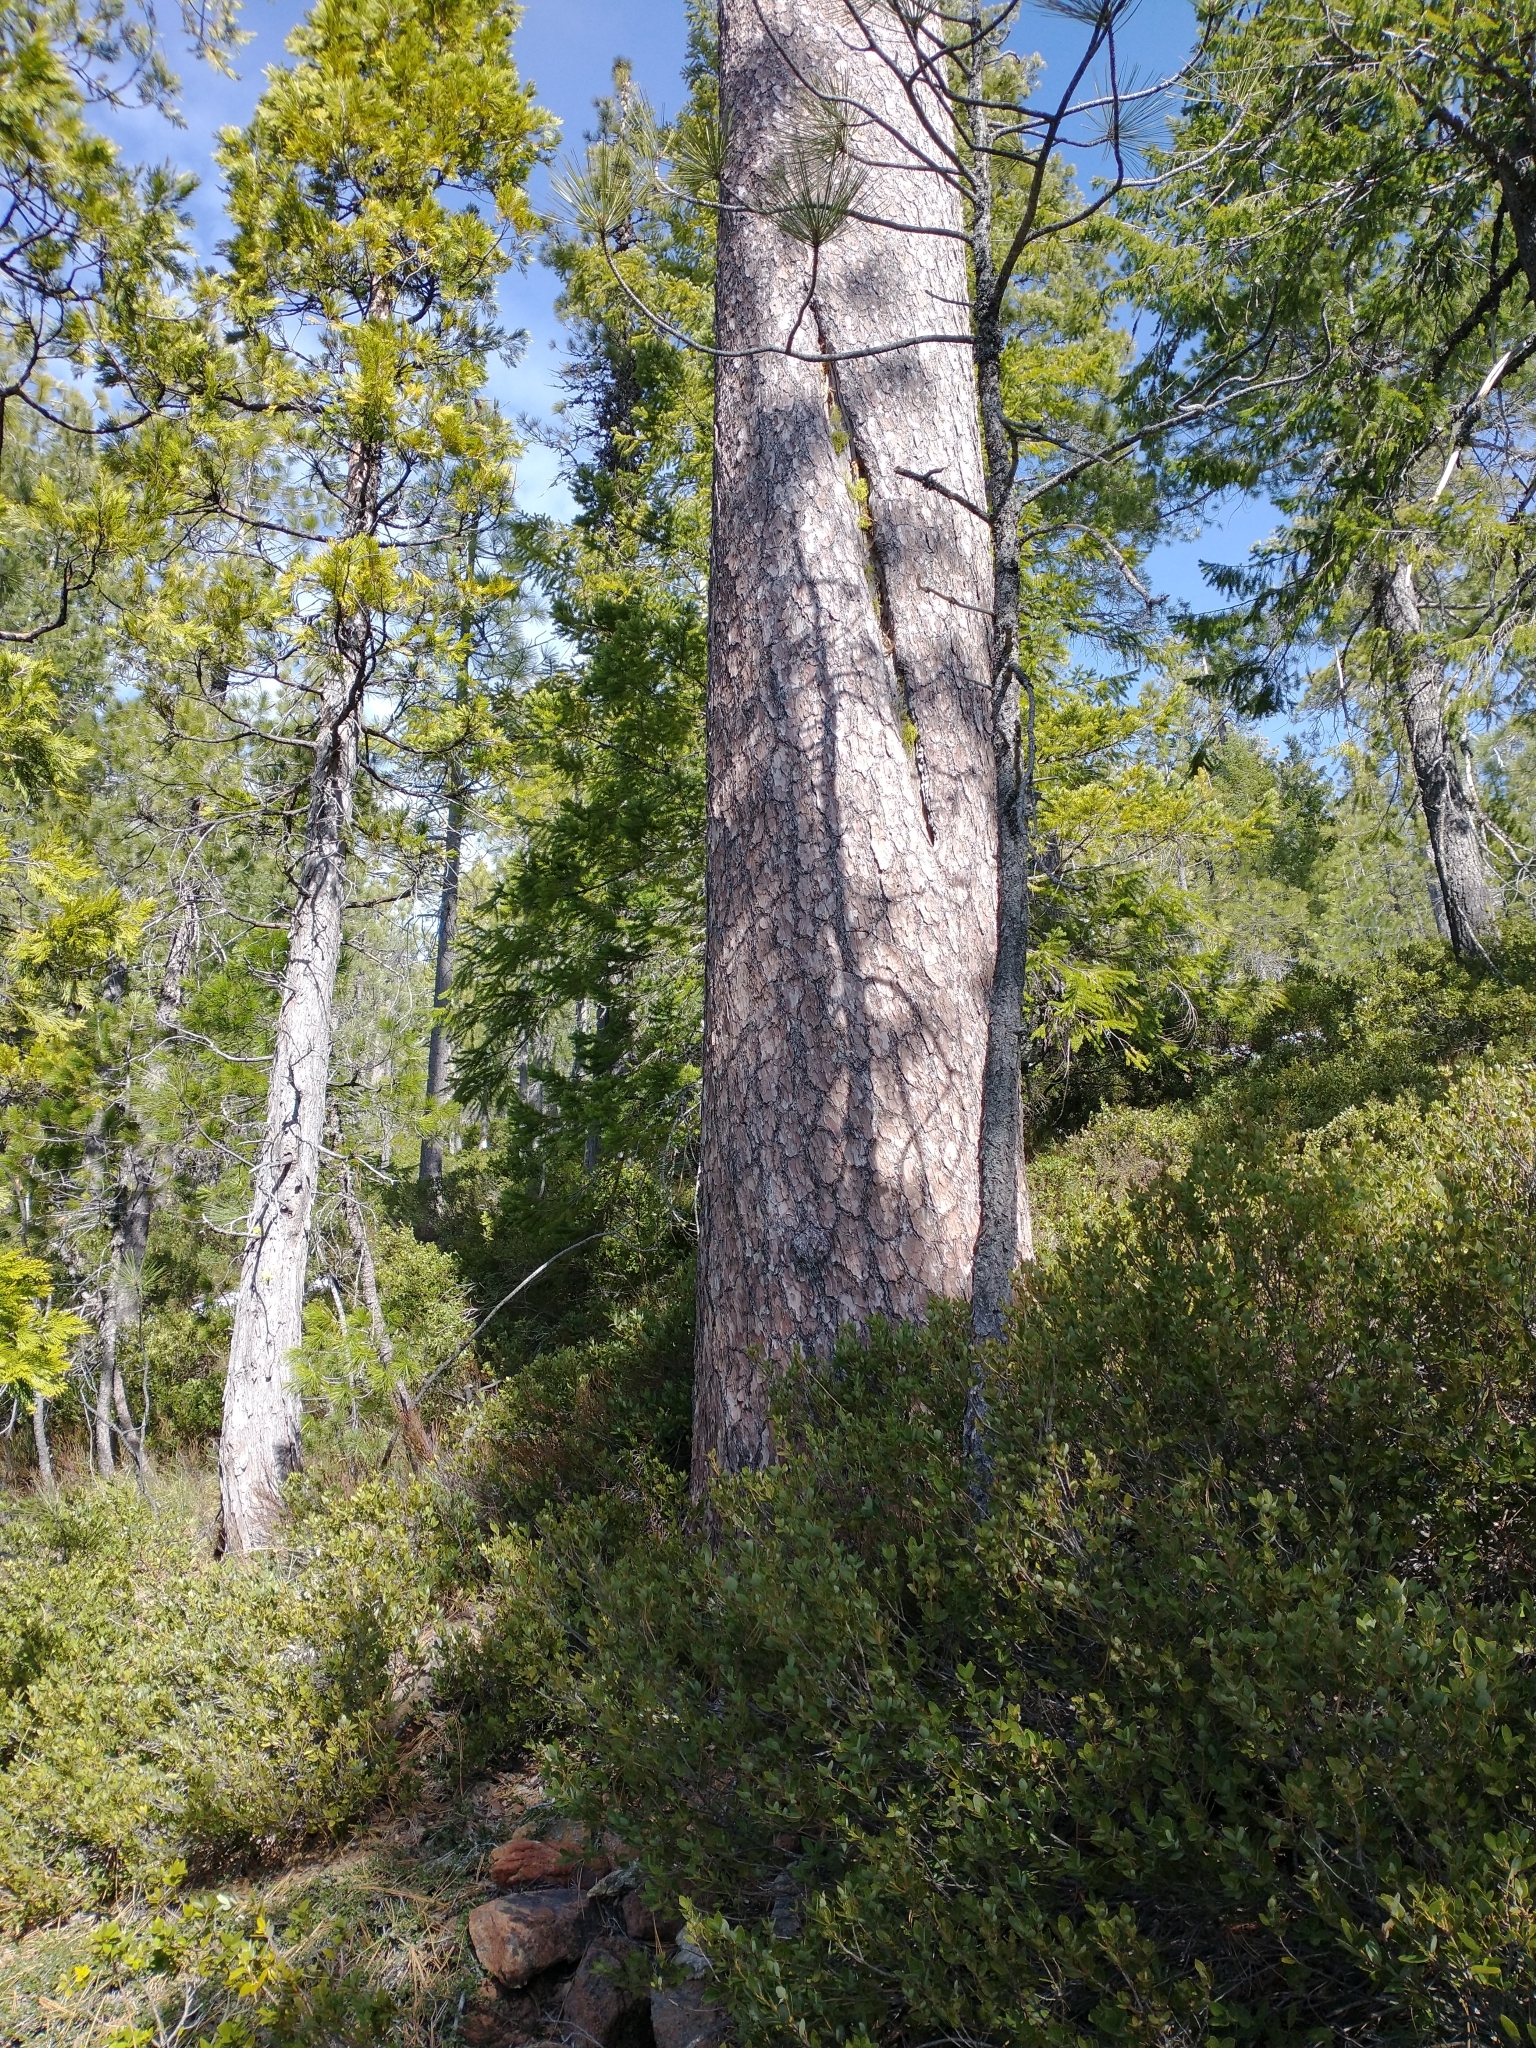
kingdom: Plantae
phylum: Tracheophyta
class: Pinopsida
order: Pinales
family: Cupressaceae
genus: Calocedrus
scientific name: Calocedrus decurrens
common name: Californian incense-cedar
